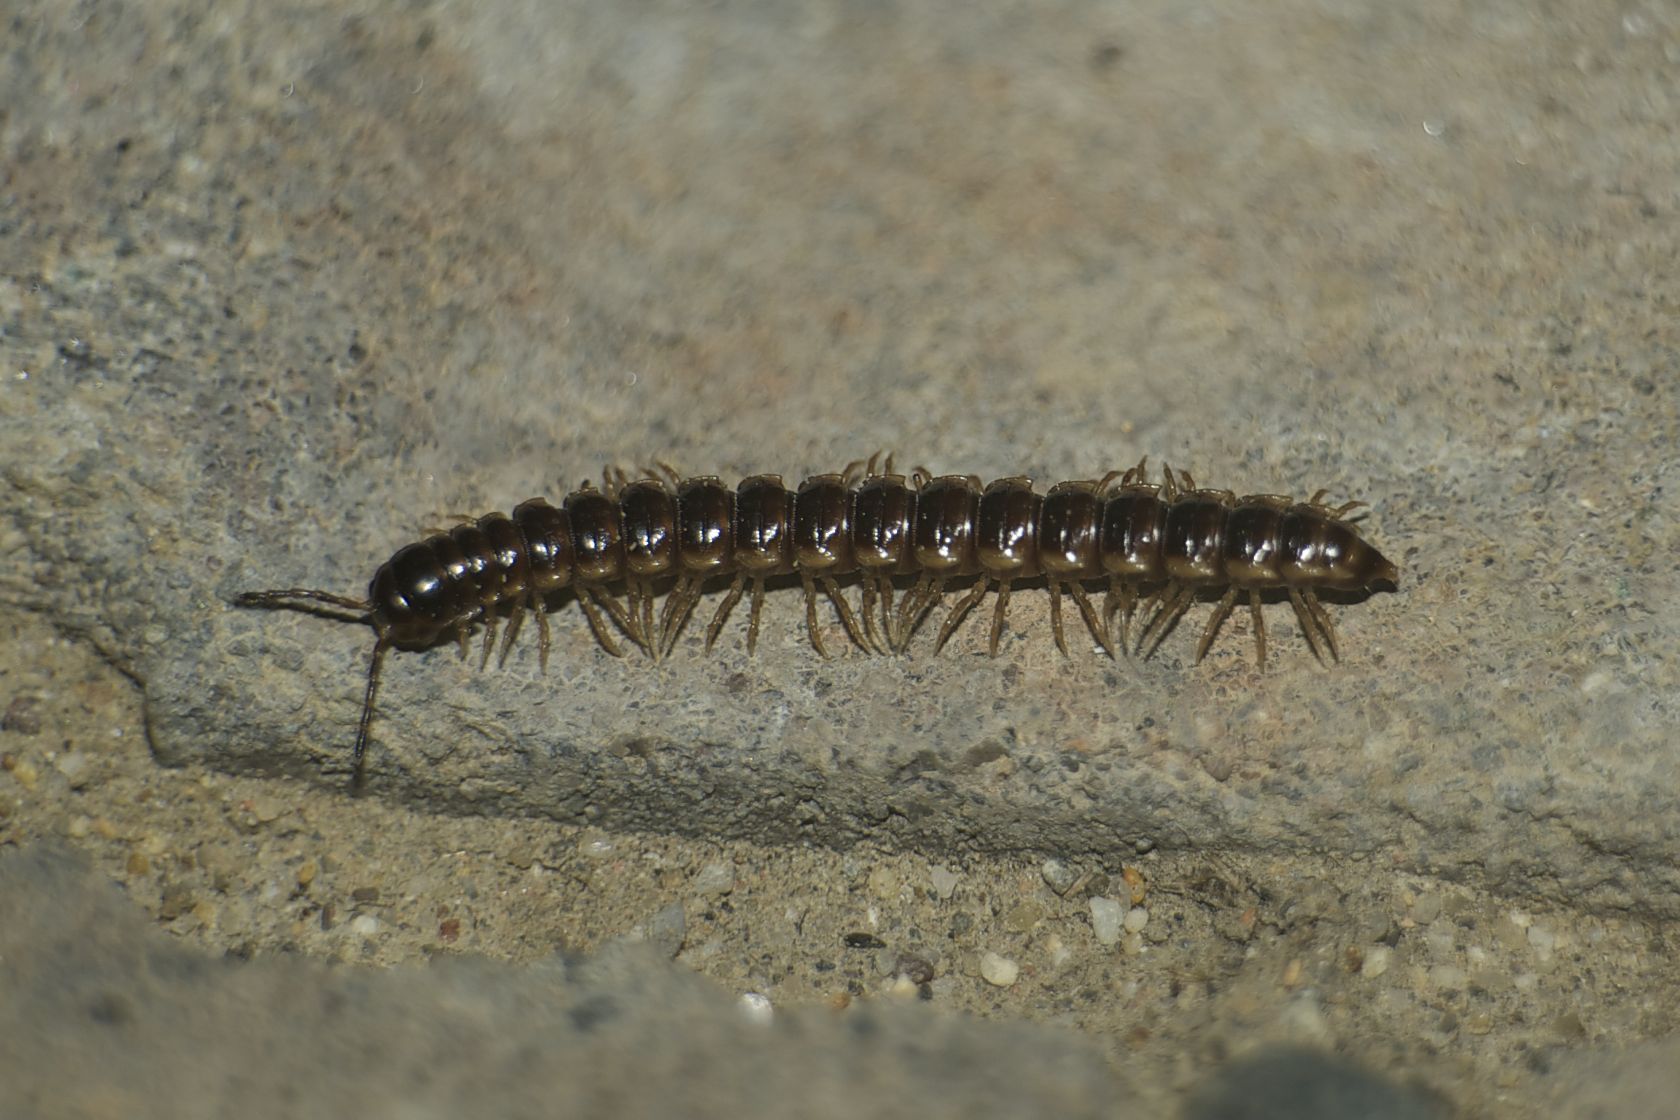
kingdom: Animalia
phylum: Arthropoda
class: Diplopoda
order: Polydesmida
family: Paradoxosomatidae
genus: Oxidus
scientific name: Oxidus gracilis
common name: Greenhouse millipede
